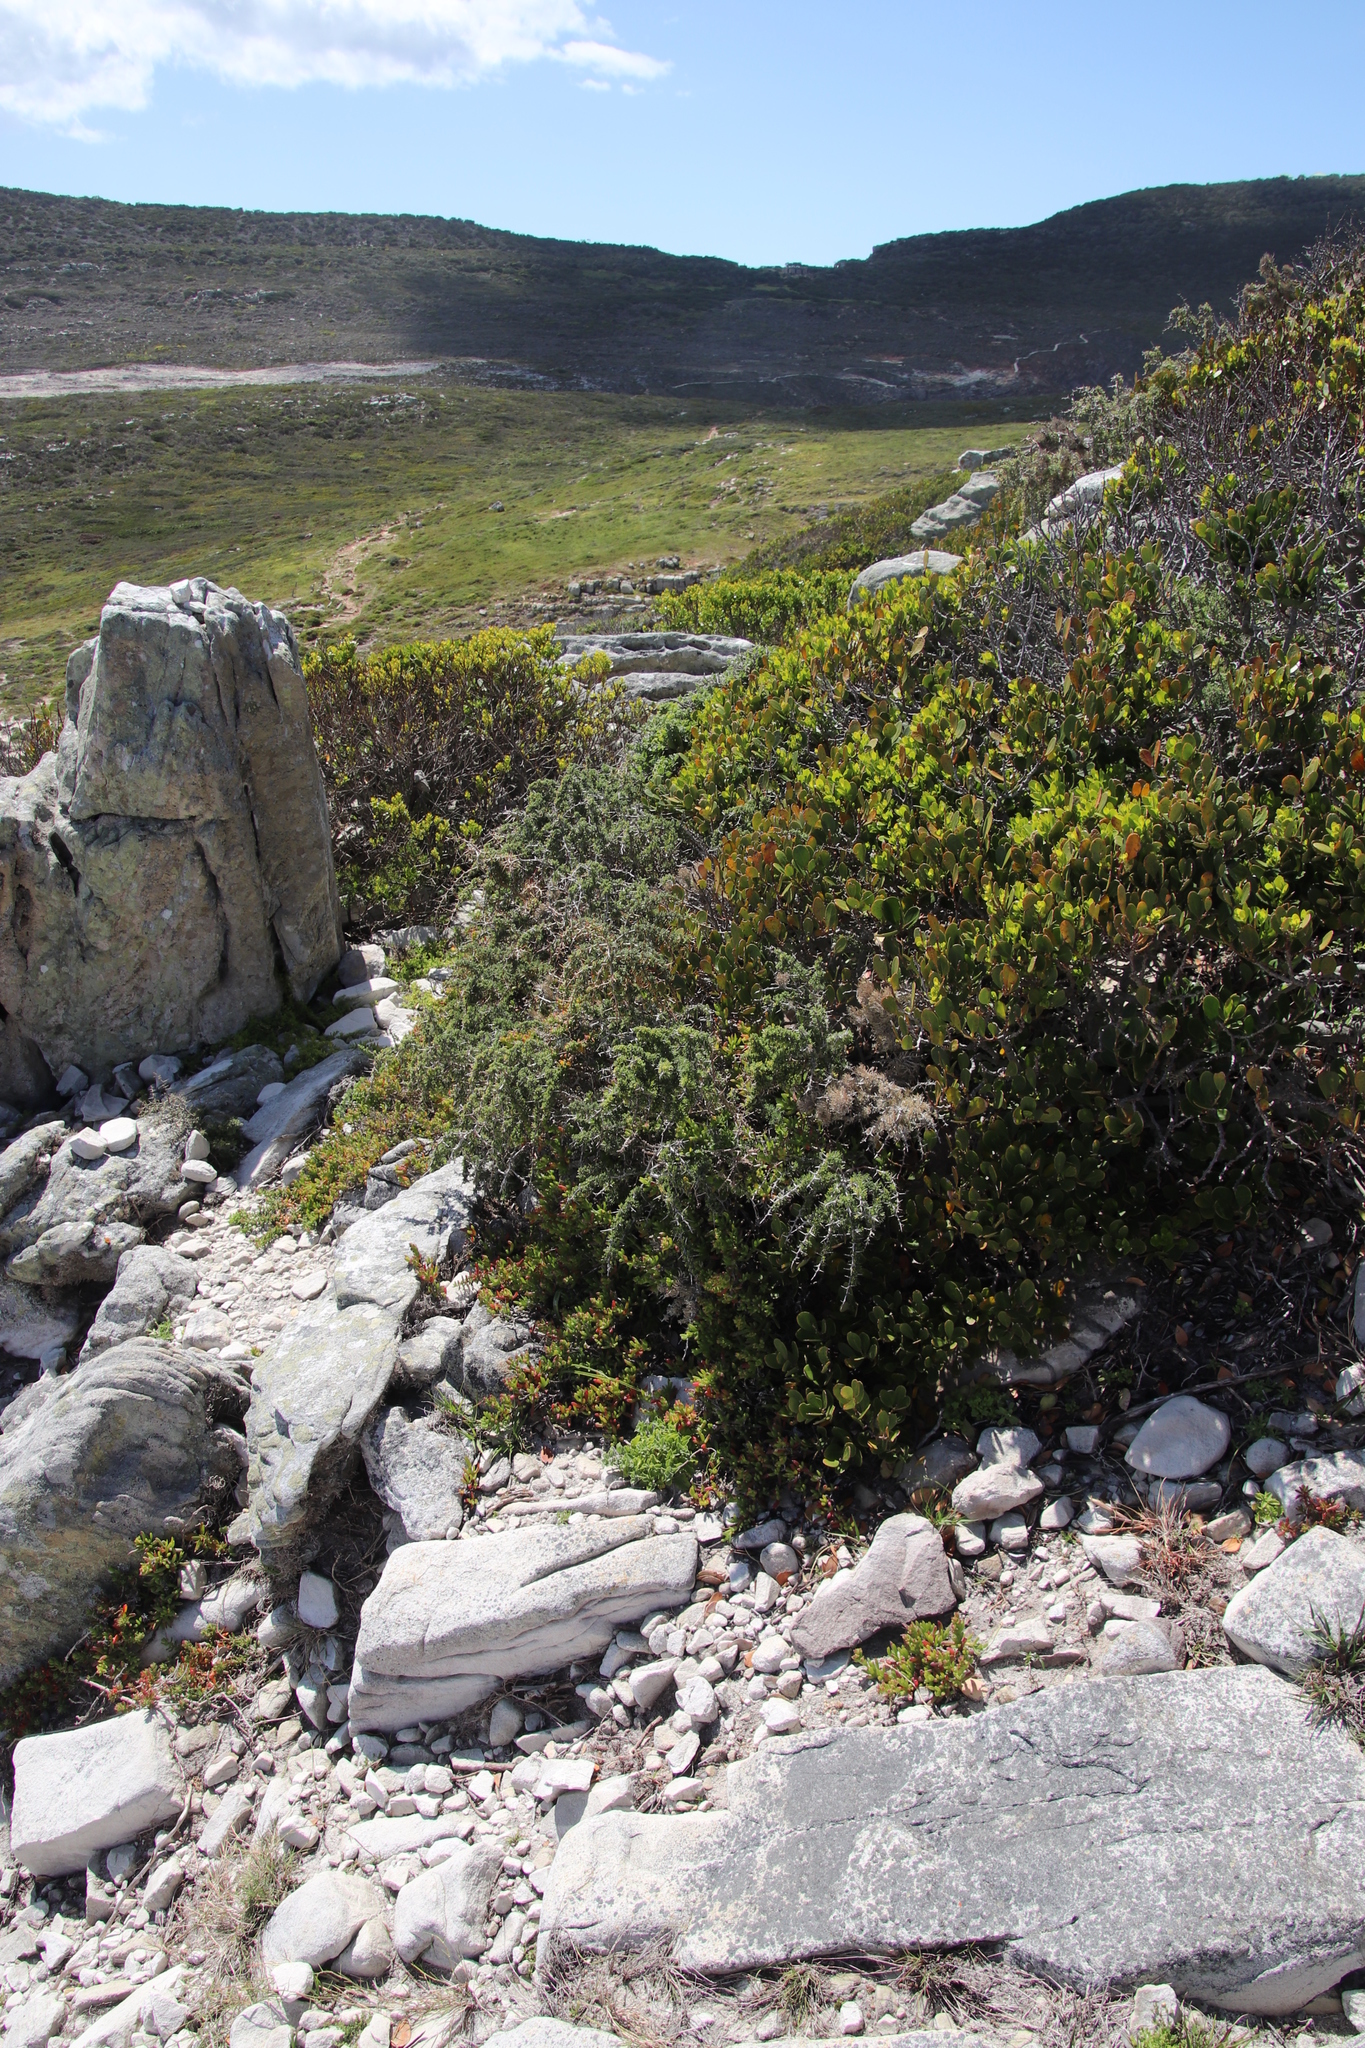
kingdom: Plantae
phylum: Tracheophyta
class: Liliopsida
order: Asparagales
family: Asparagaceae
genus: Asparagus
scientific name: Asparagus capensis
